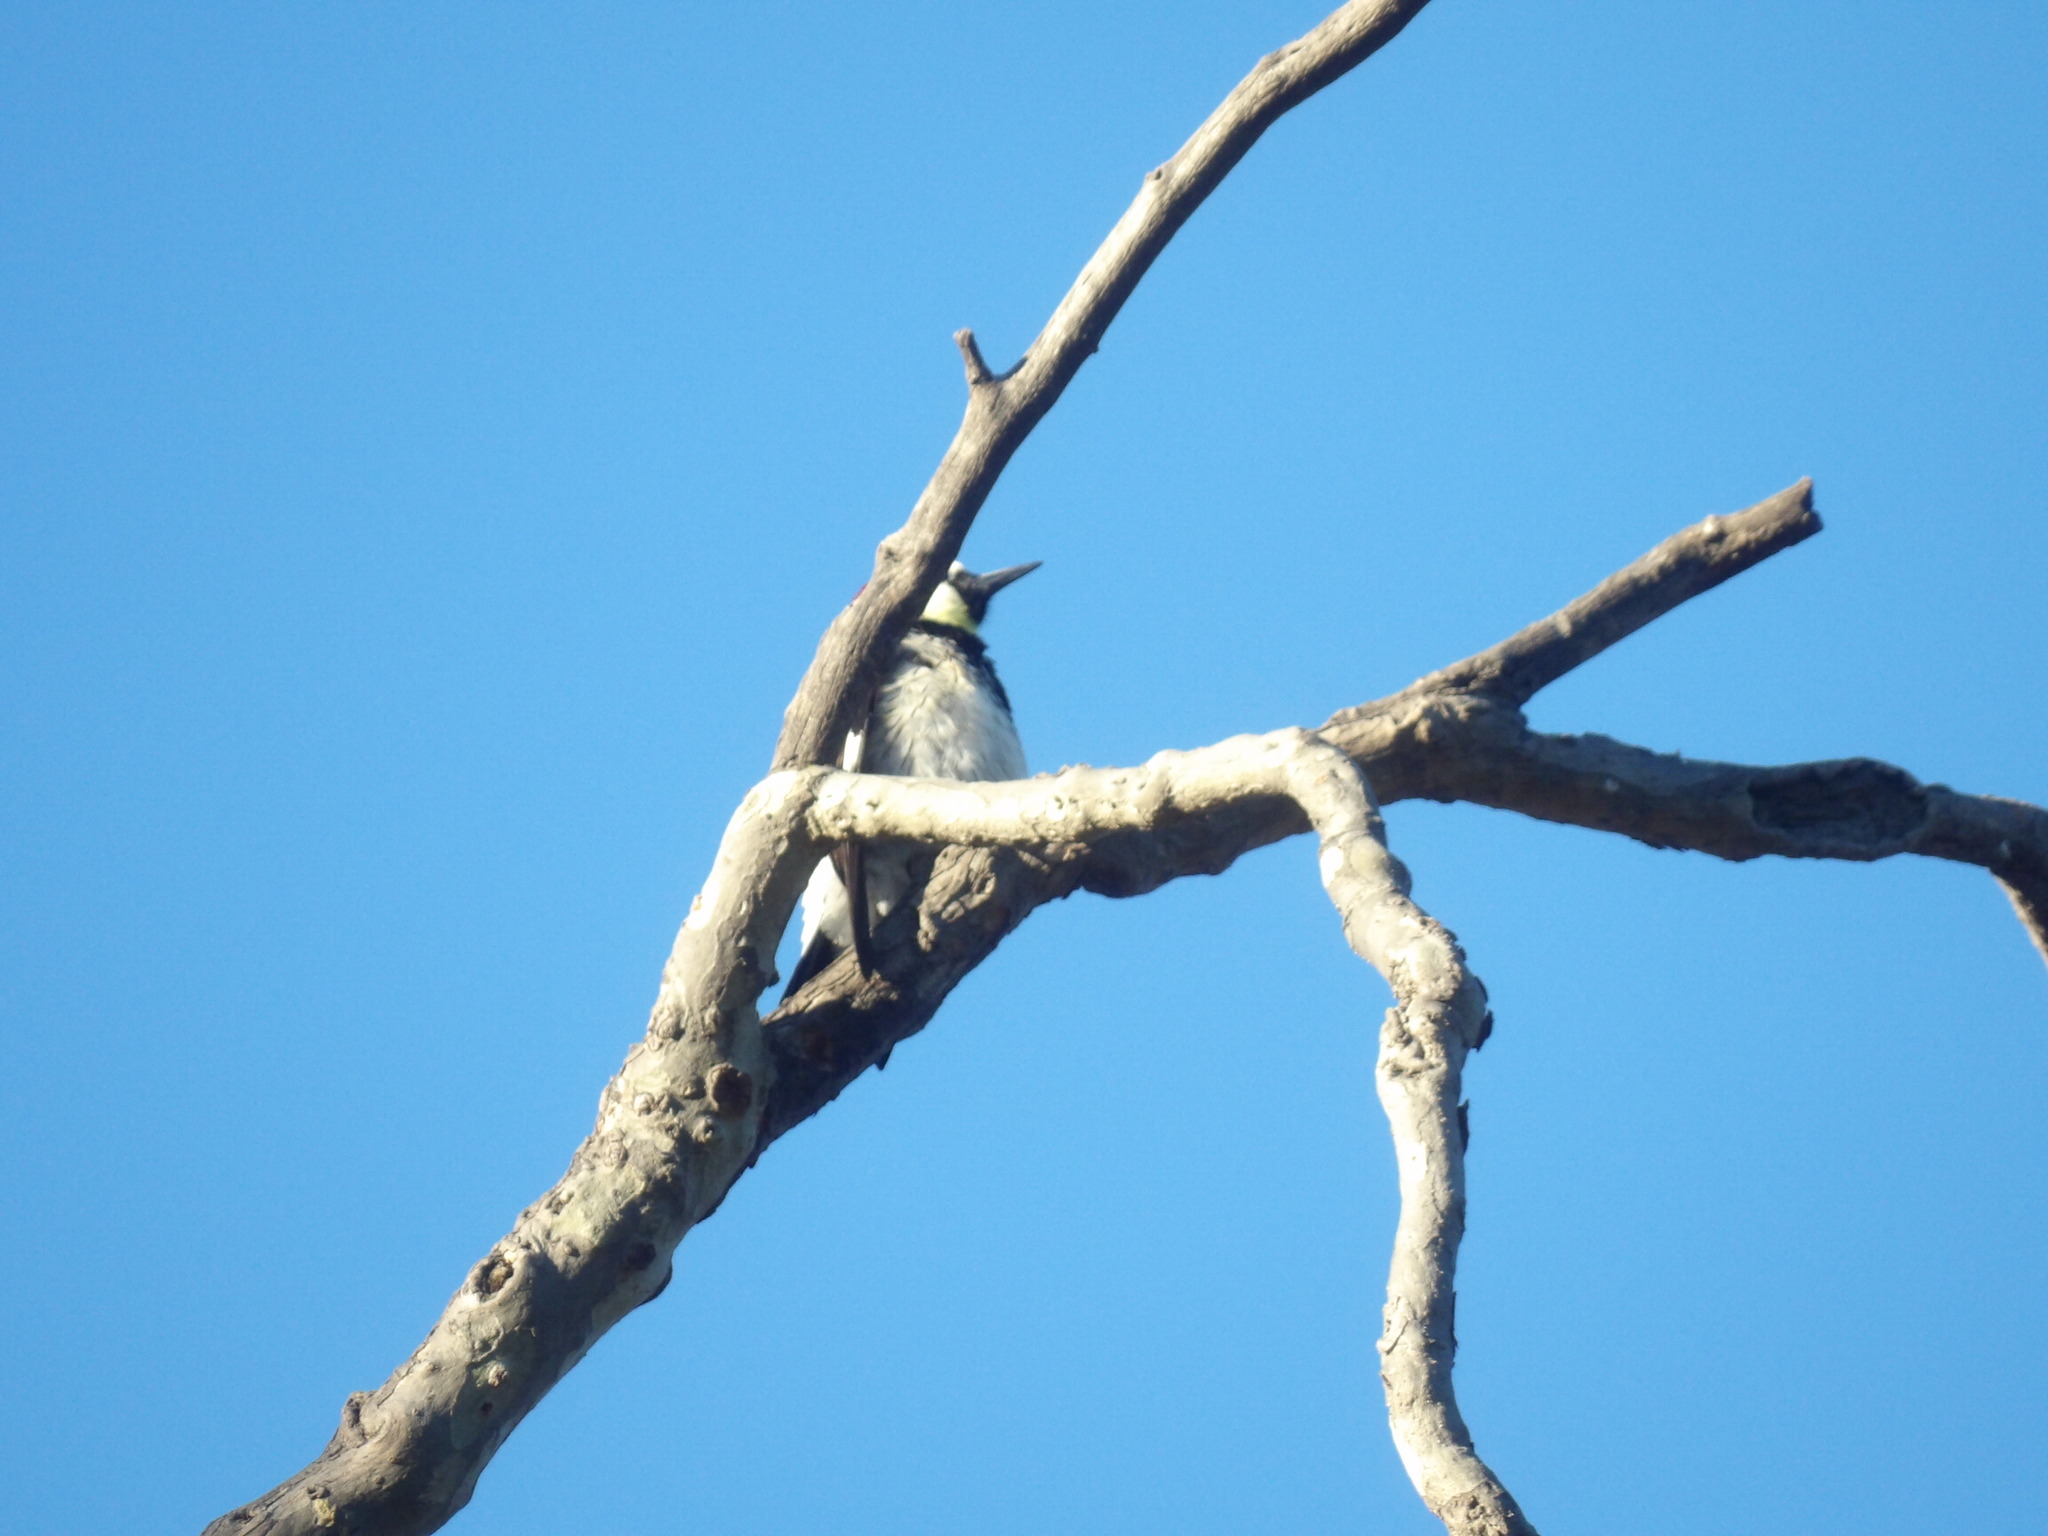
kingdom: Animalia
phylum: Chordata
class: Aves
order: Piciformes
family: Picidae
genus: Melanerpes
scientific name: Melanerpes formicivorus
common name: Acorn woodpecker
